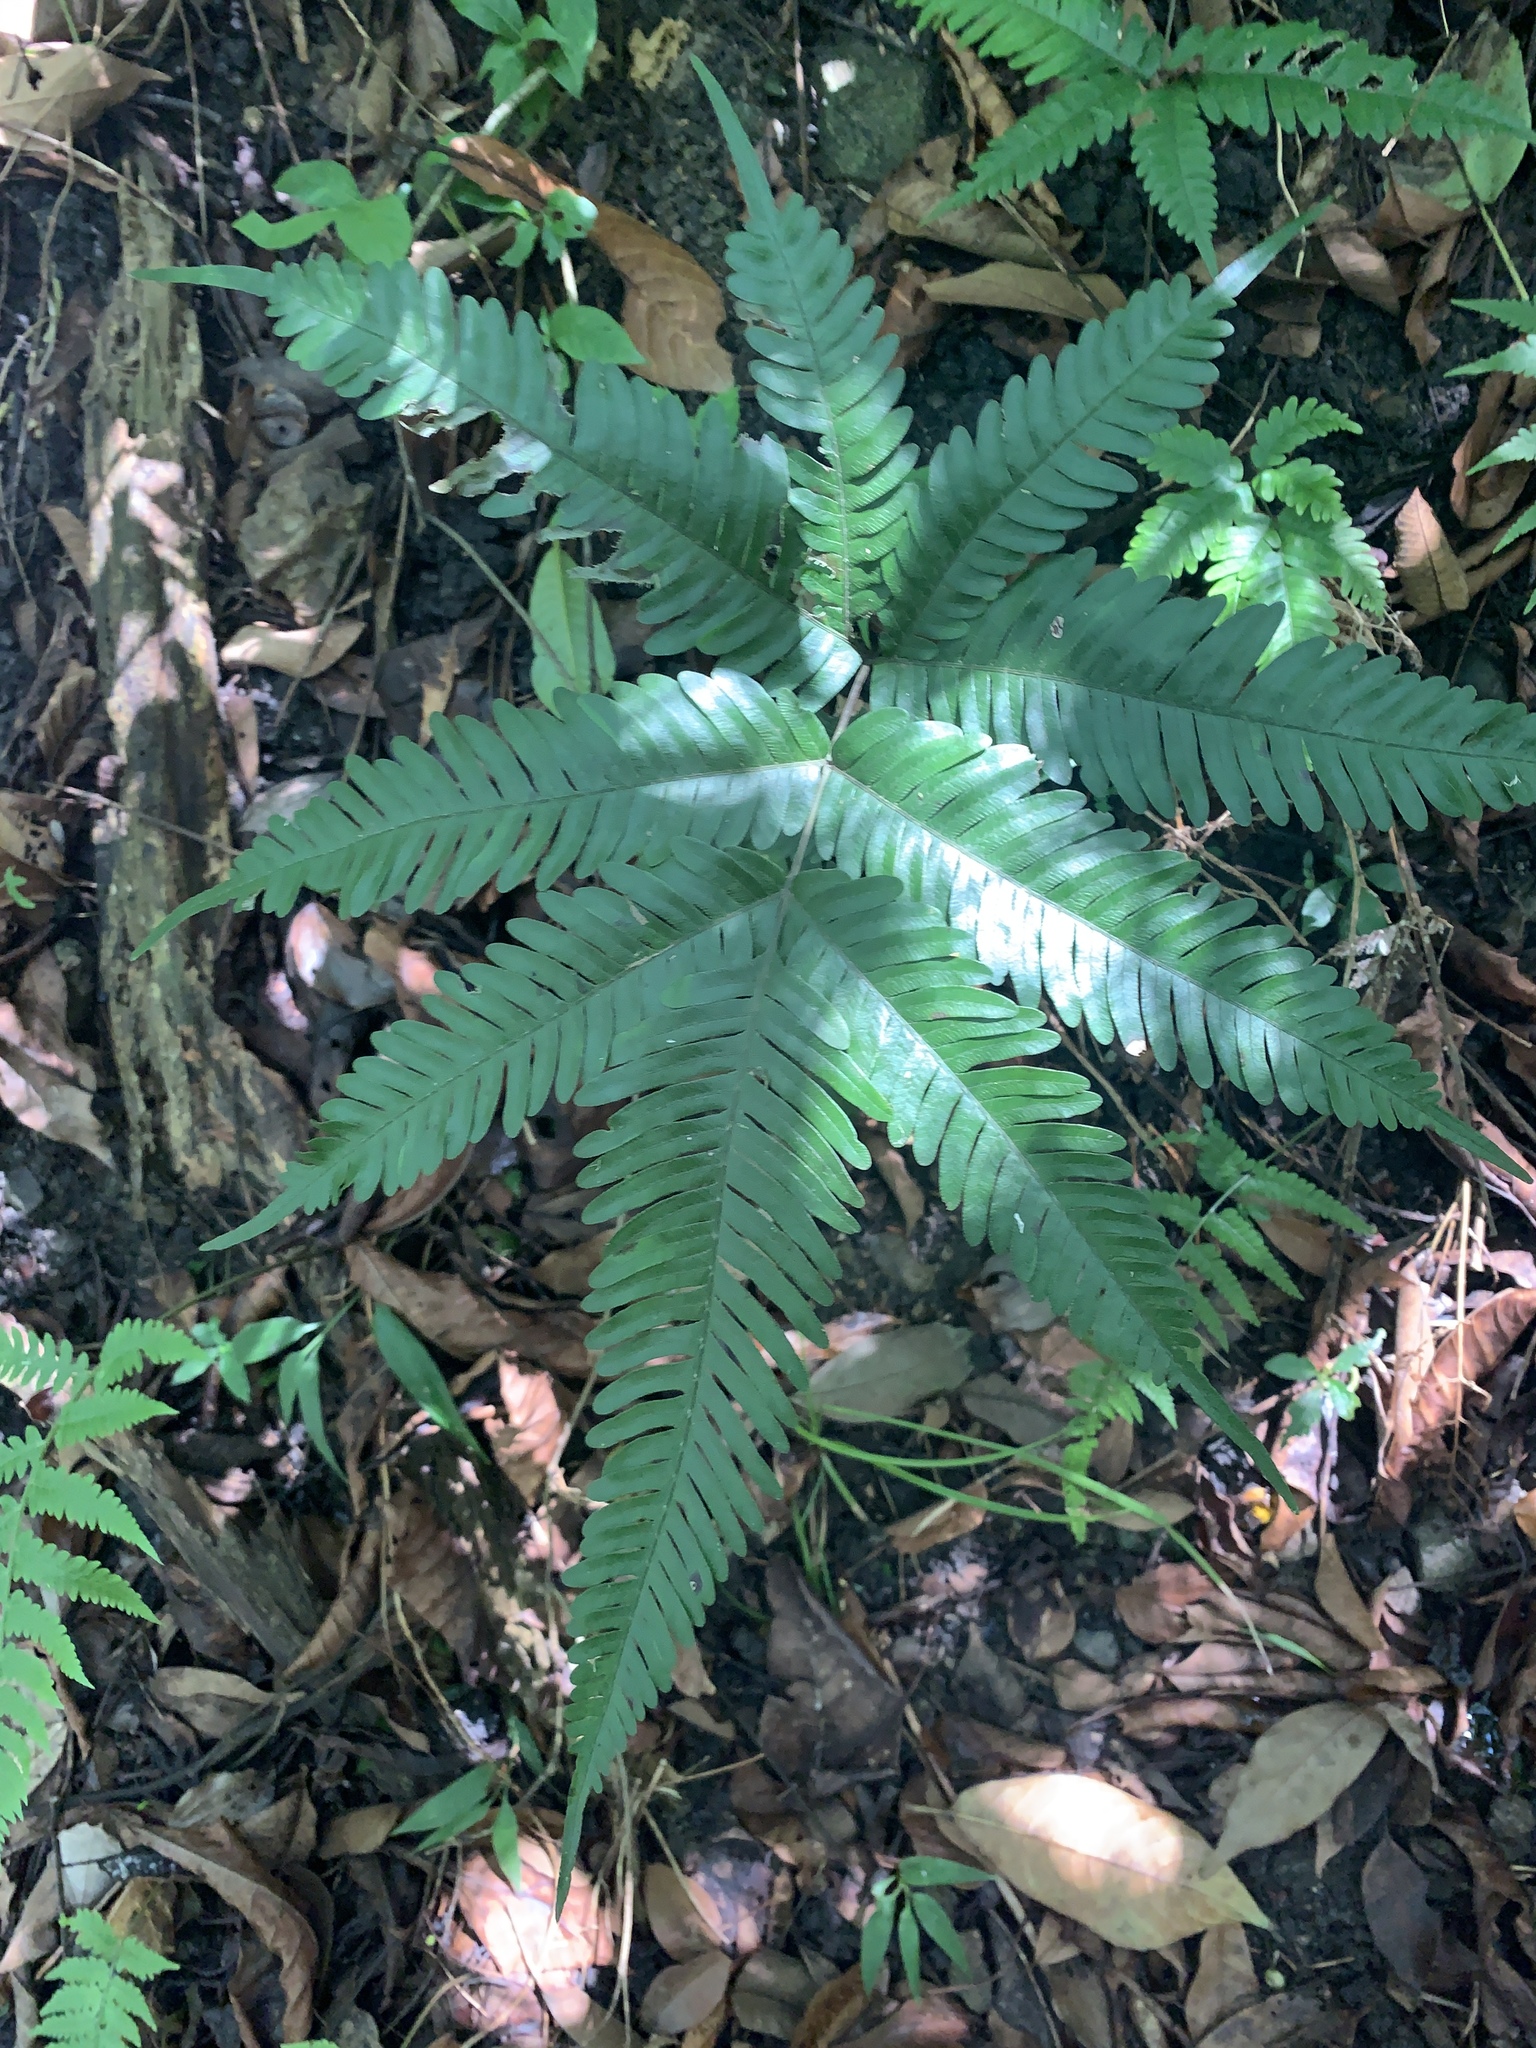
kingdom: Plantae
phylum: Tracheophyta
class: Polypodiopsida
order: Polypodiales
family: Pteridaceae
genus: Pteris
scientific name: Pteris fauriei
